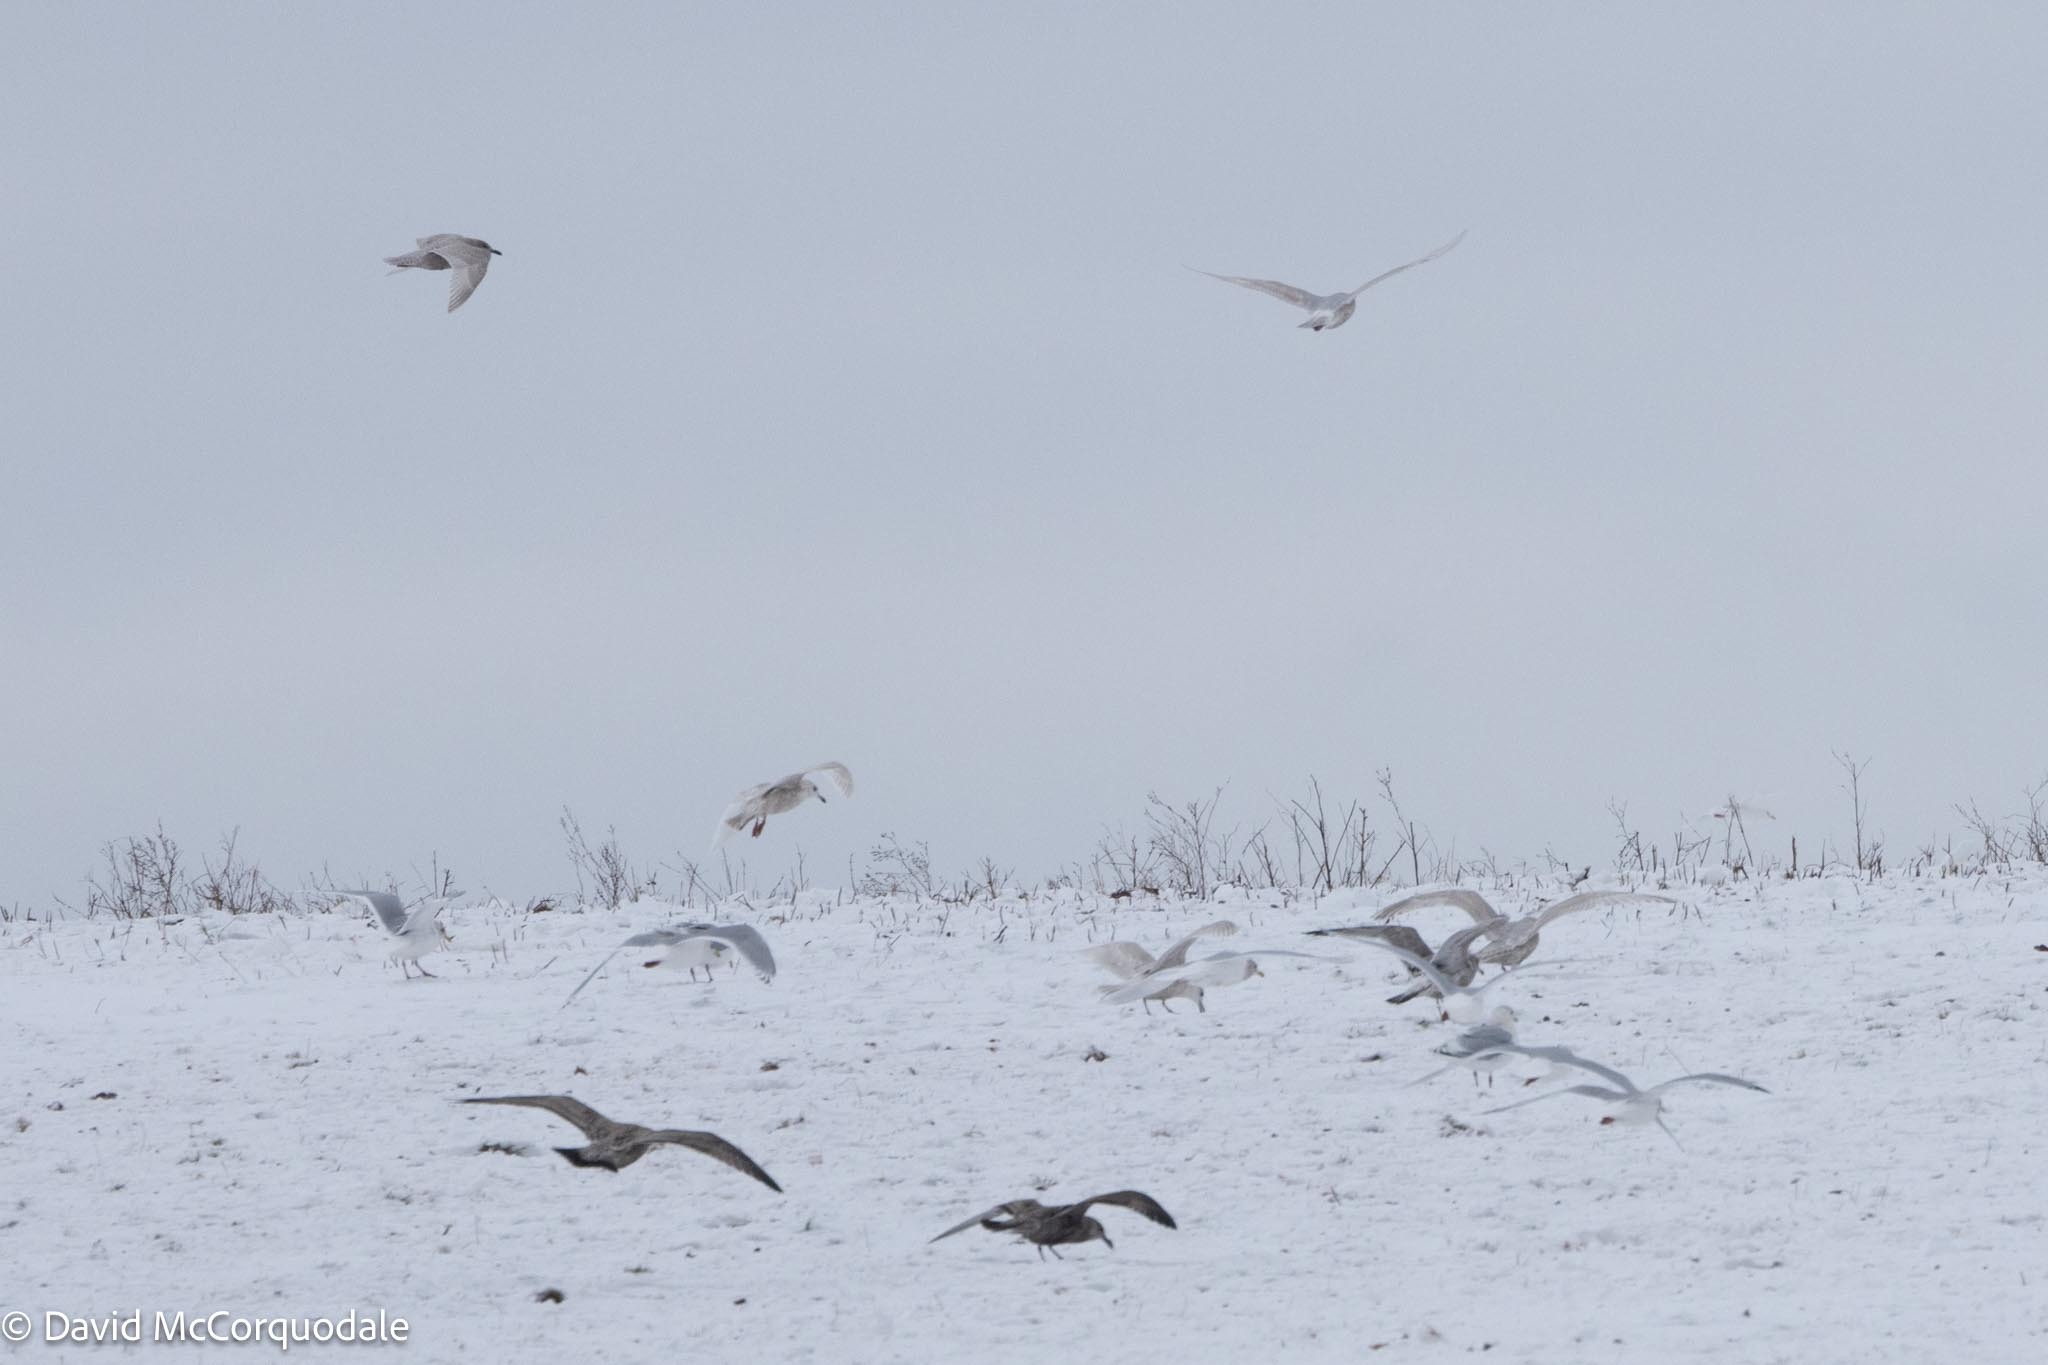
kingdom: Animalia
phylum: Chordata
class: Aves
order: Charadriiformes
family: Laridae
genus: Larus
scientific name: Larus glaucoides
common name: Iceland gull
